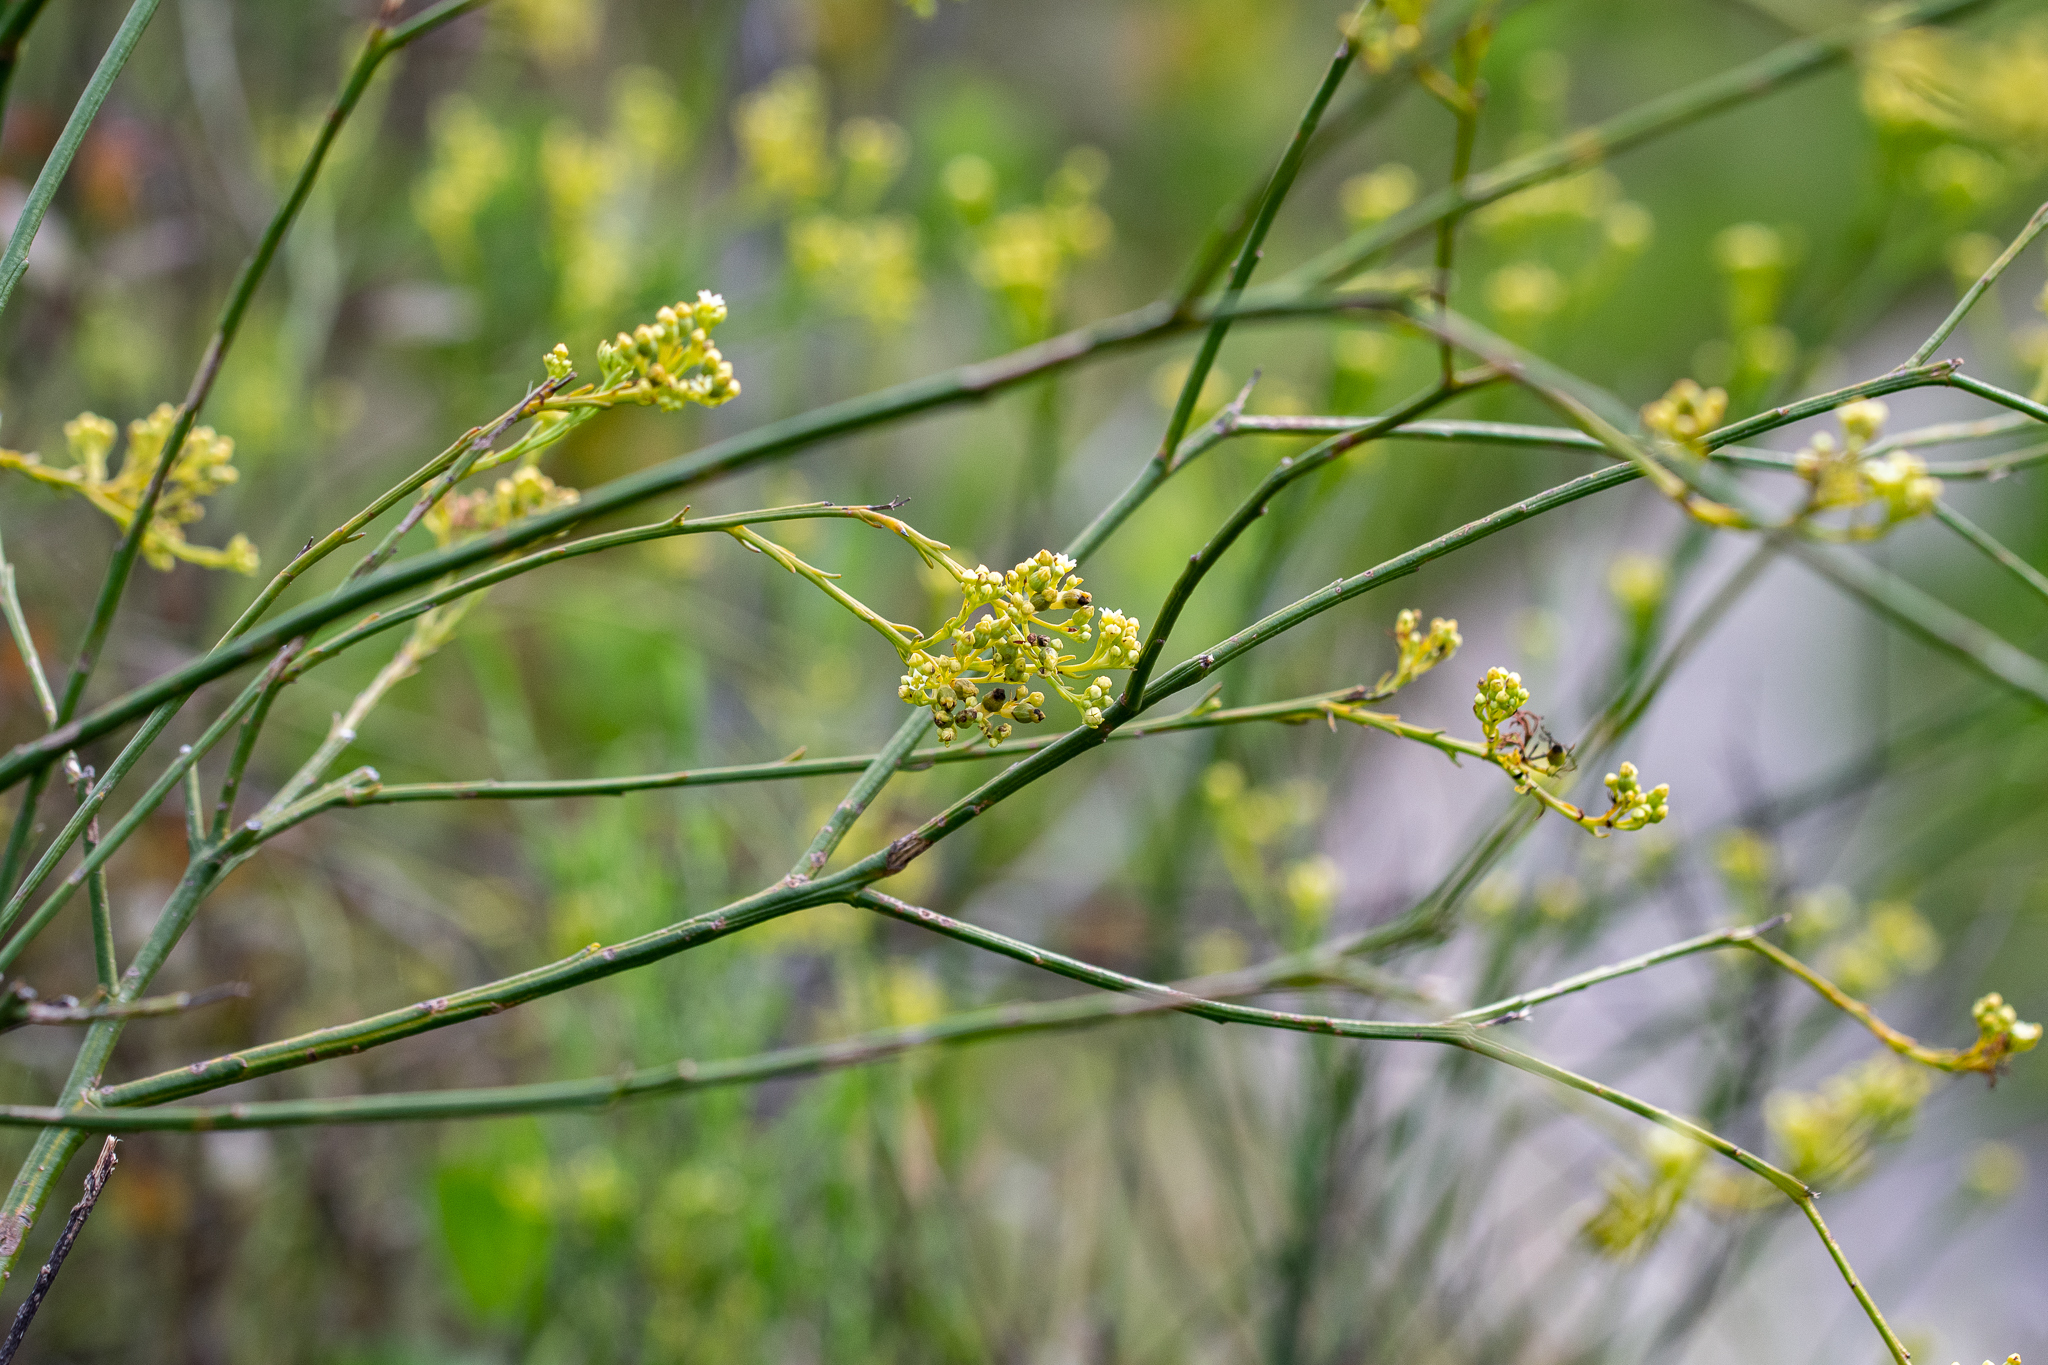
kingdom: Plantae
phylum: Tracheophyta
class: Magnoliopsida
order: Santalales
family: Thesiaceae
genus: Thesium
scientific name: Thesium strictum
